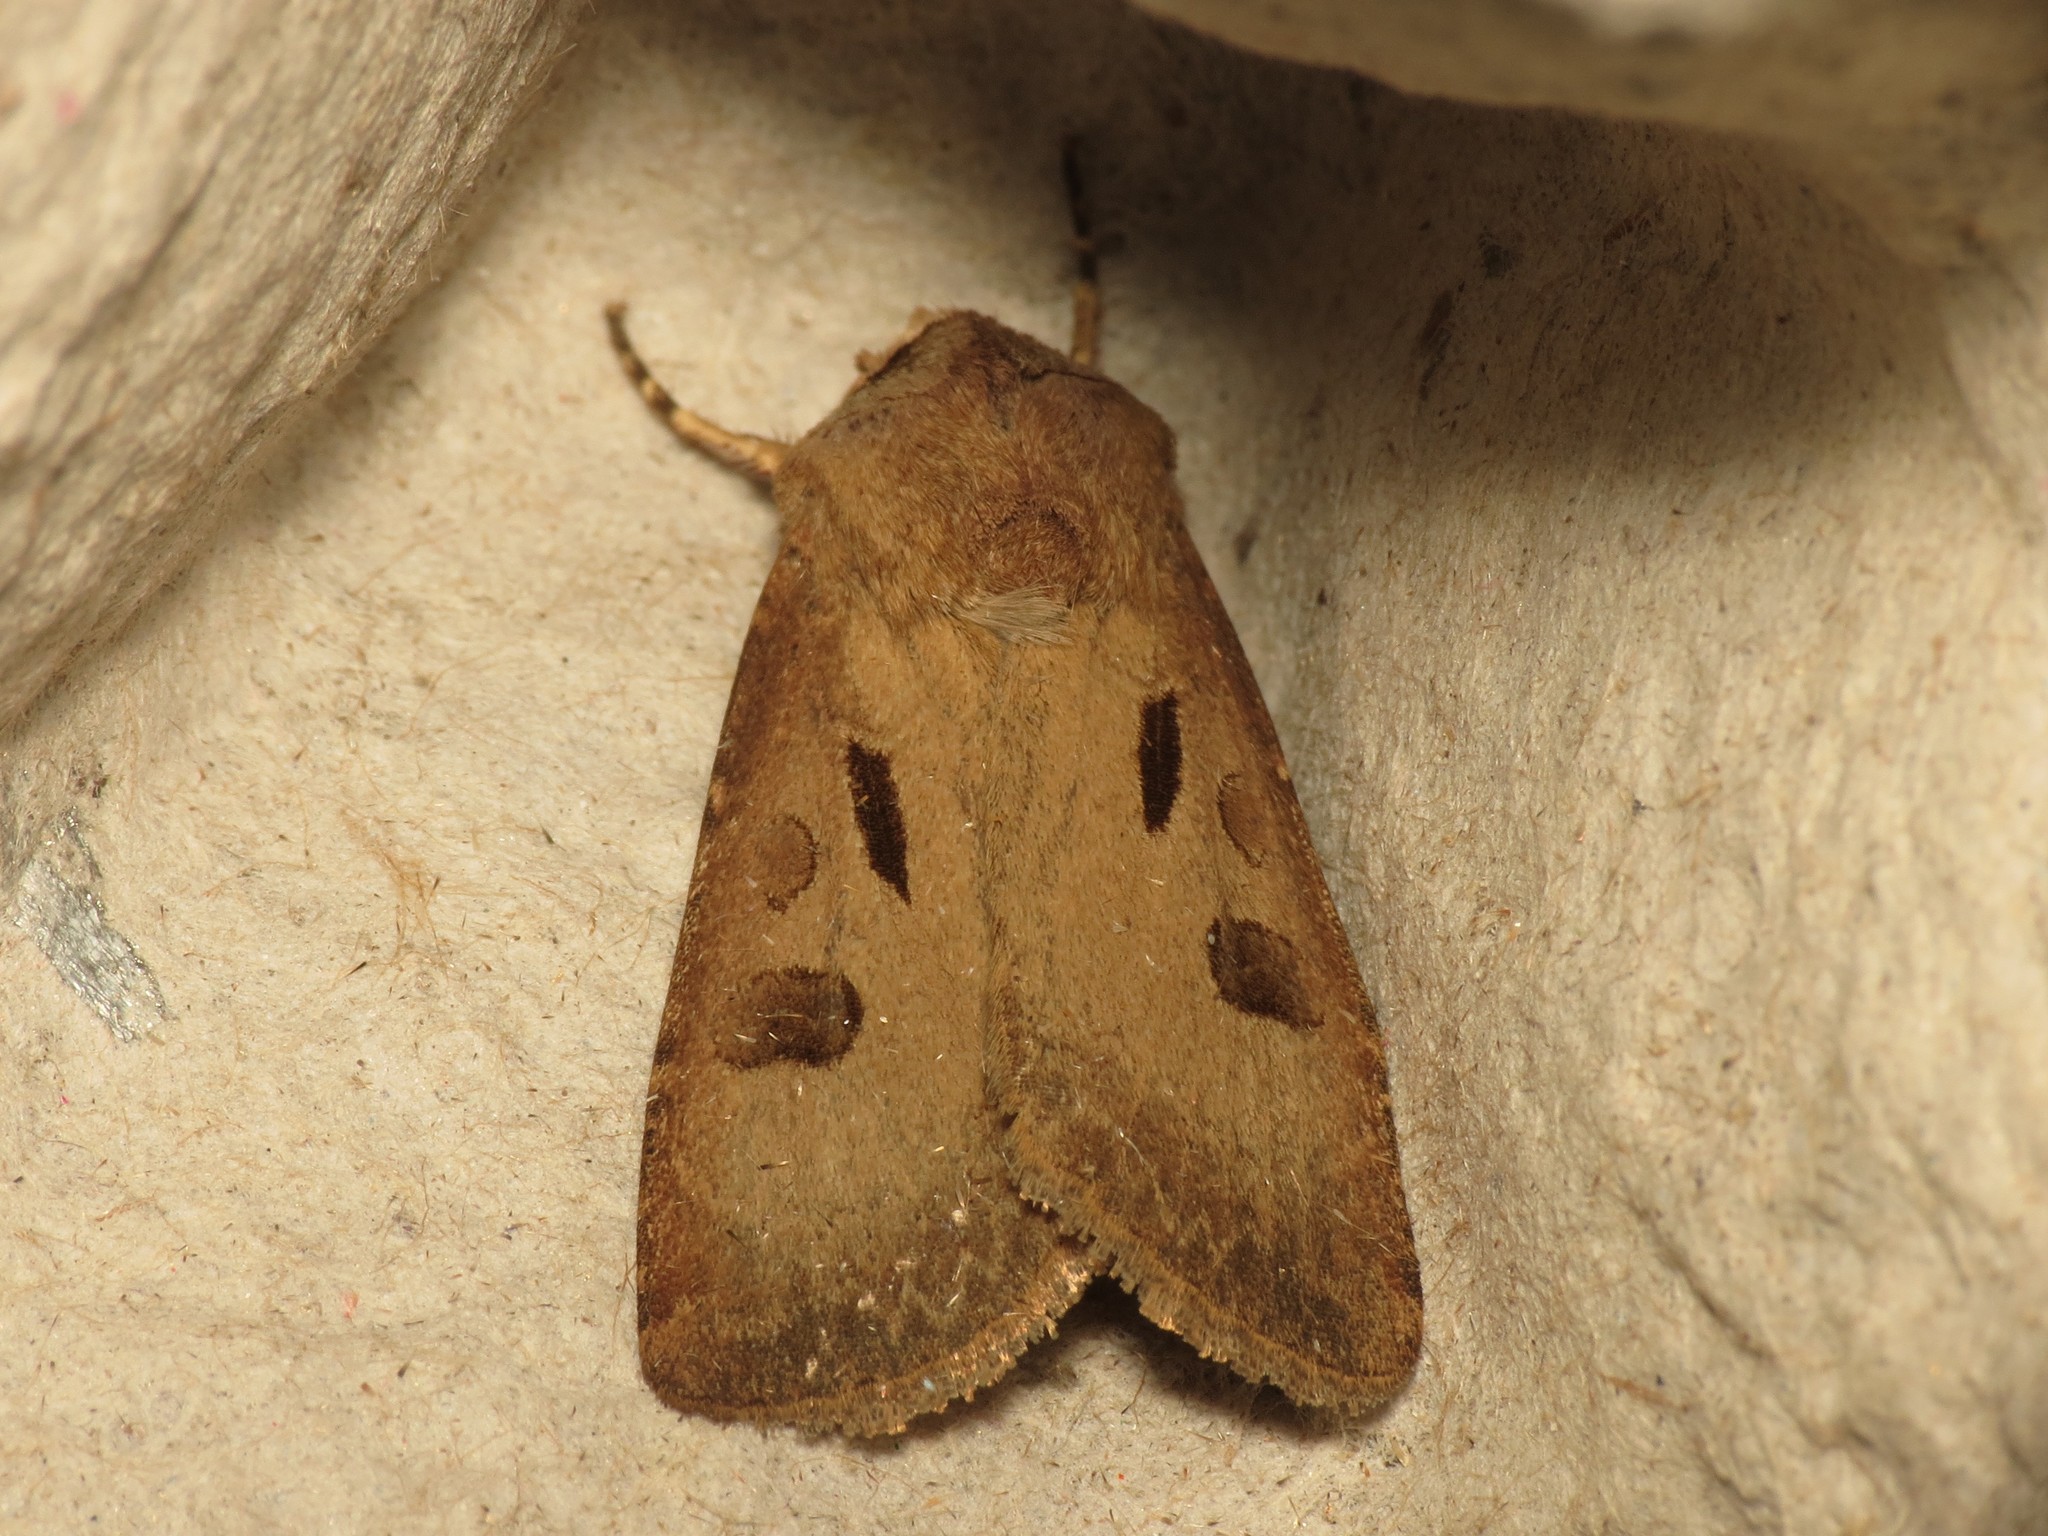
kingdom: Animalia
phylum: Arthropoda
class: Insecta
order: Lepidoptera
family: Noctuidae
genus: Agrotis
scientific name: Agrotis exclamationis
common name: Heart and dart
